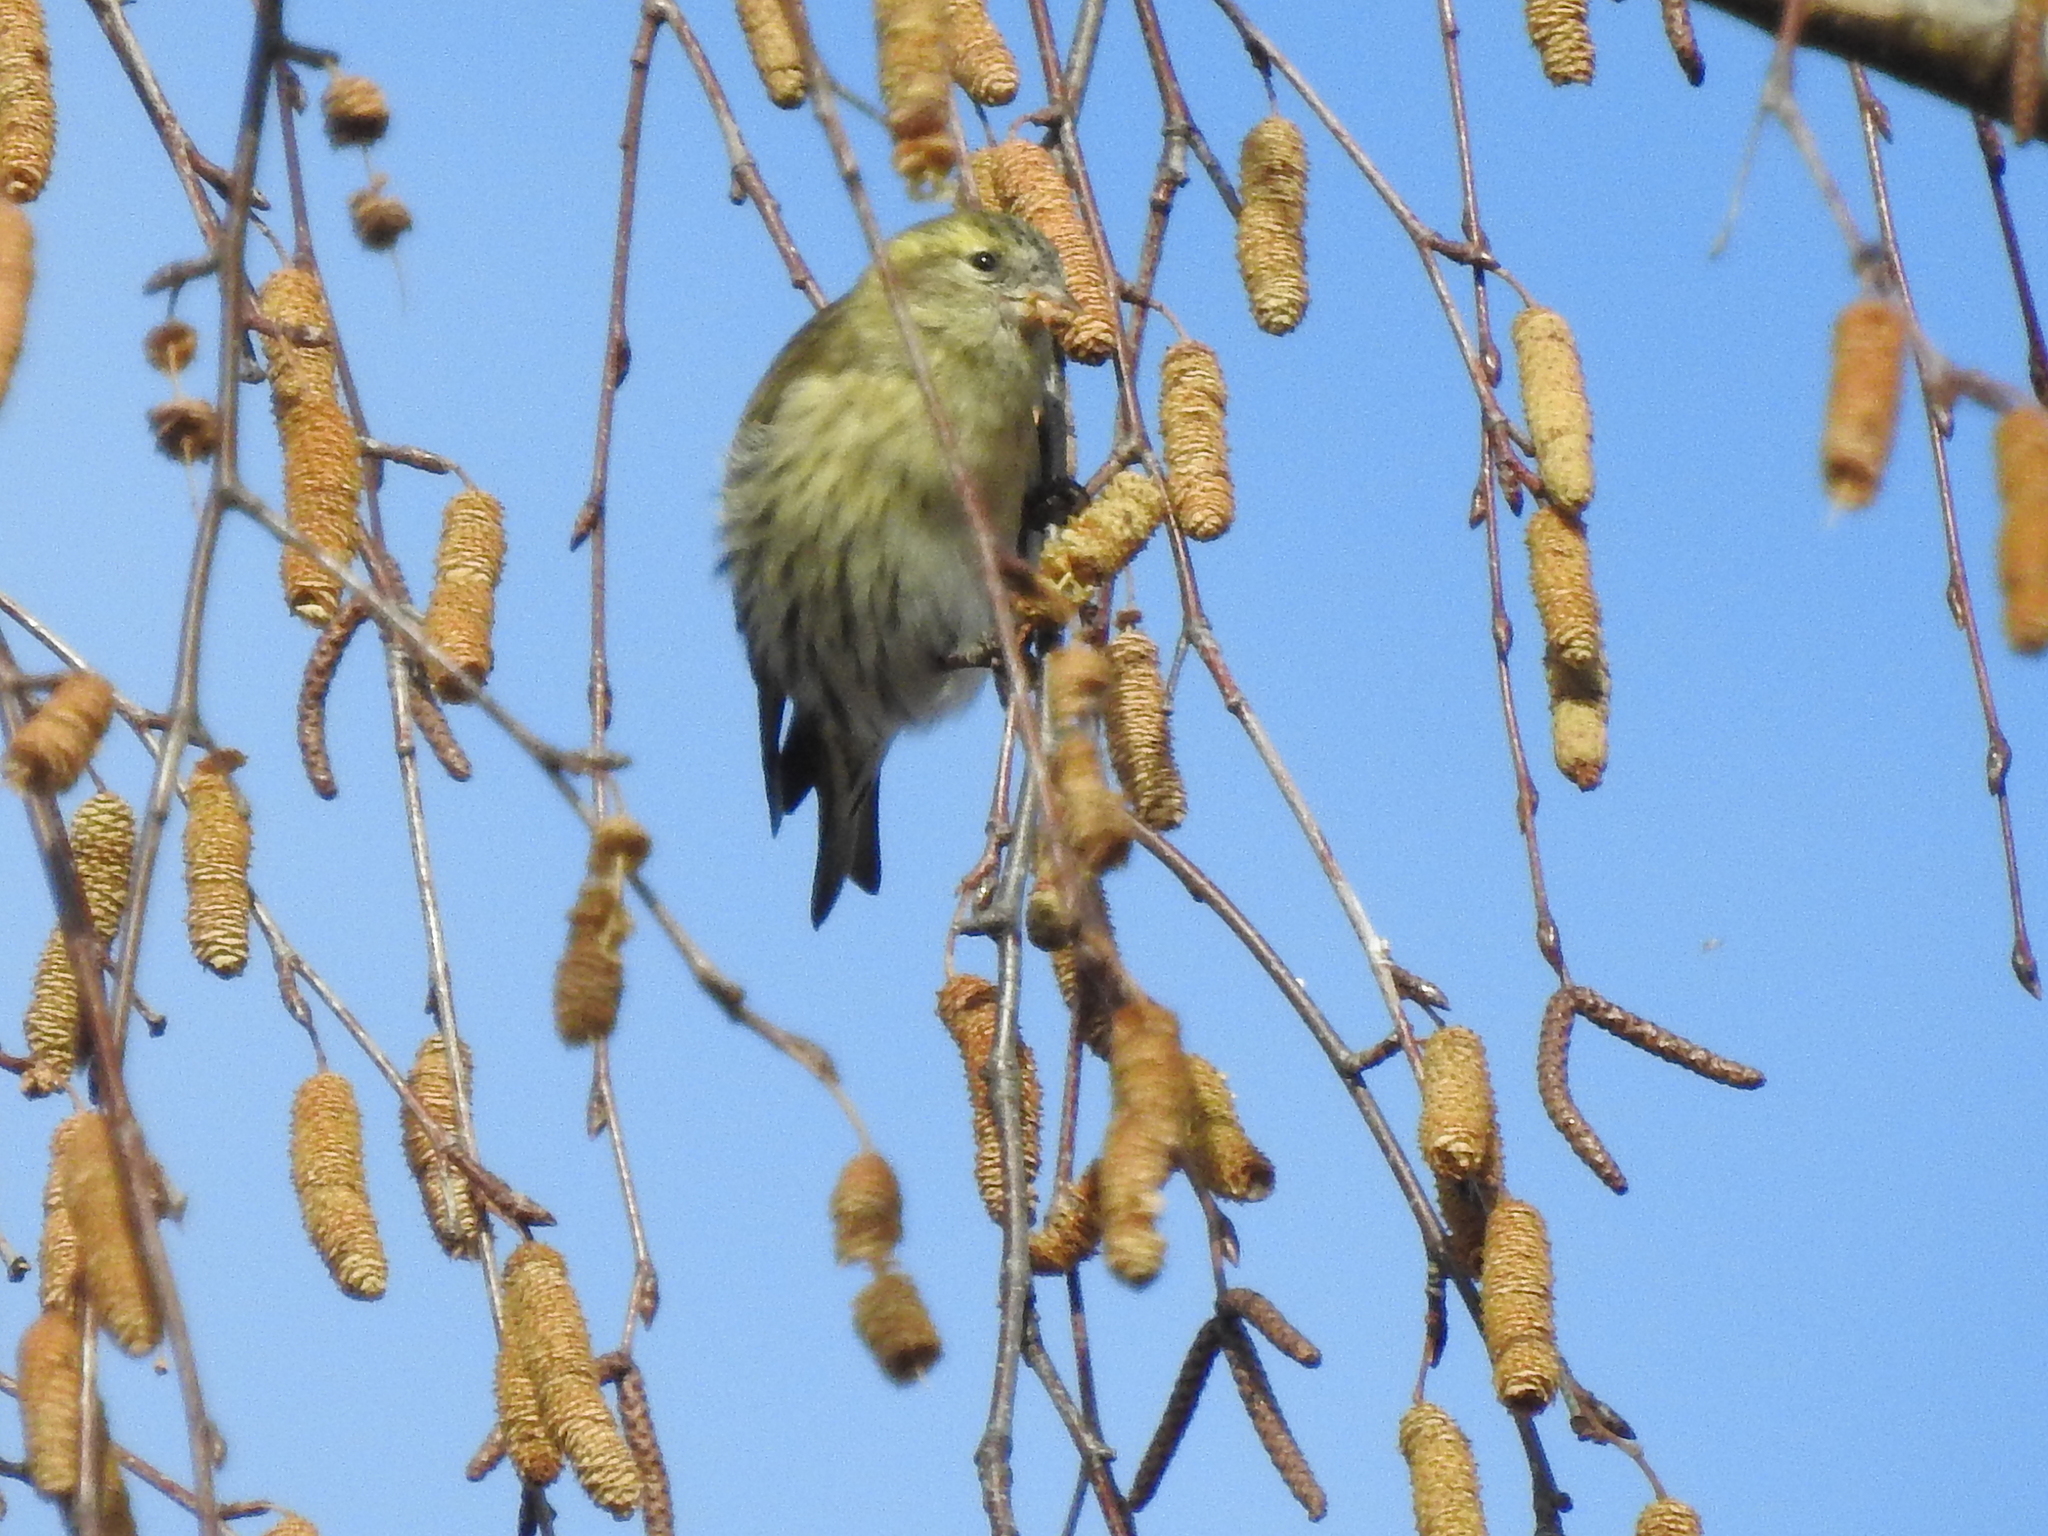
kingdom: Animalia
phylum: Chordata
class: Aves
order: Passeriformes
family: Fringillidae
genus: Spinus
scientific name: Spinus spinus
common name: Eurasian siskin
